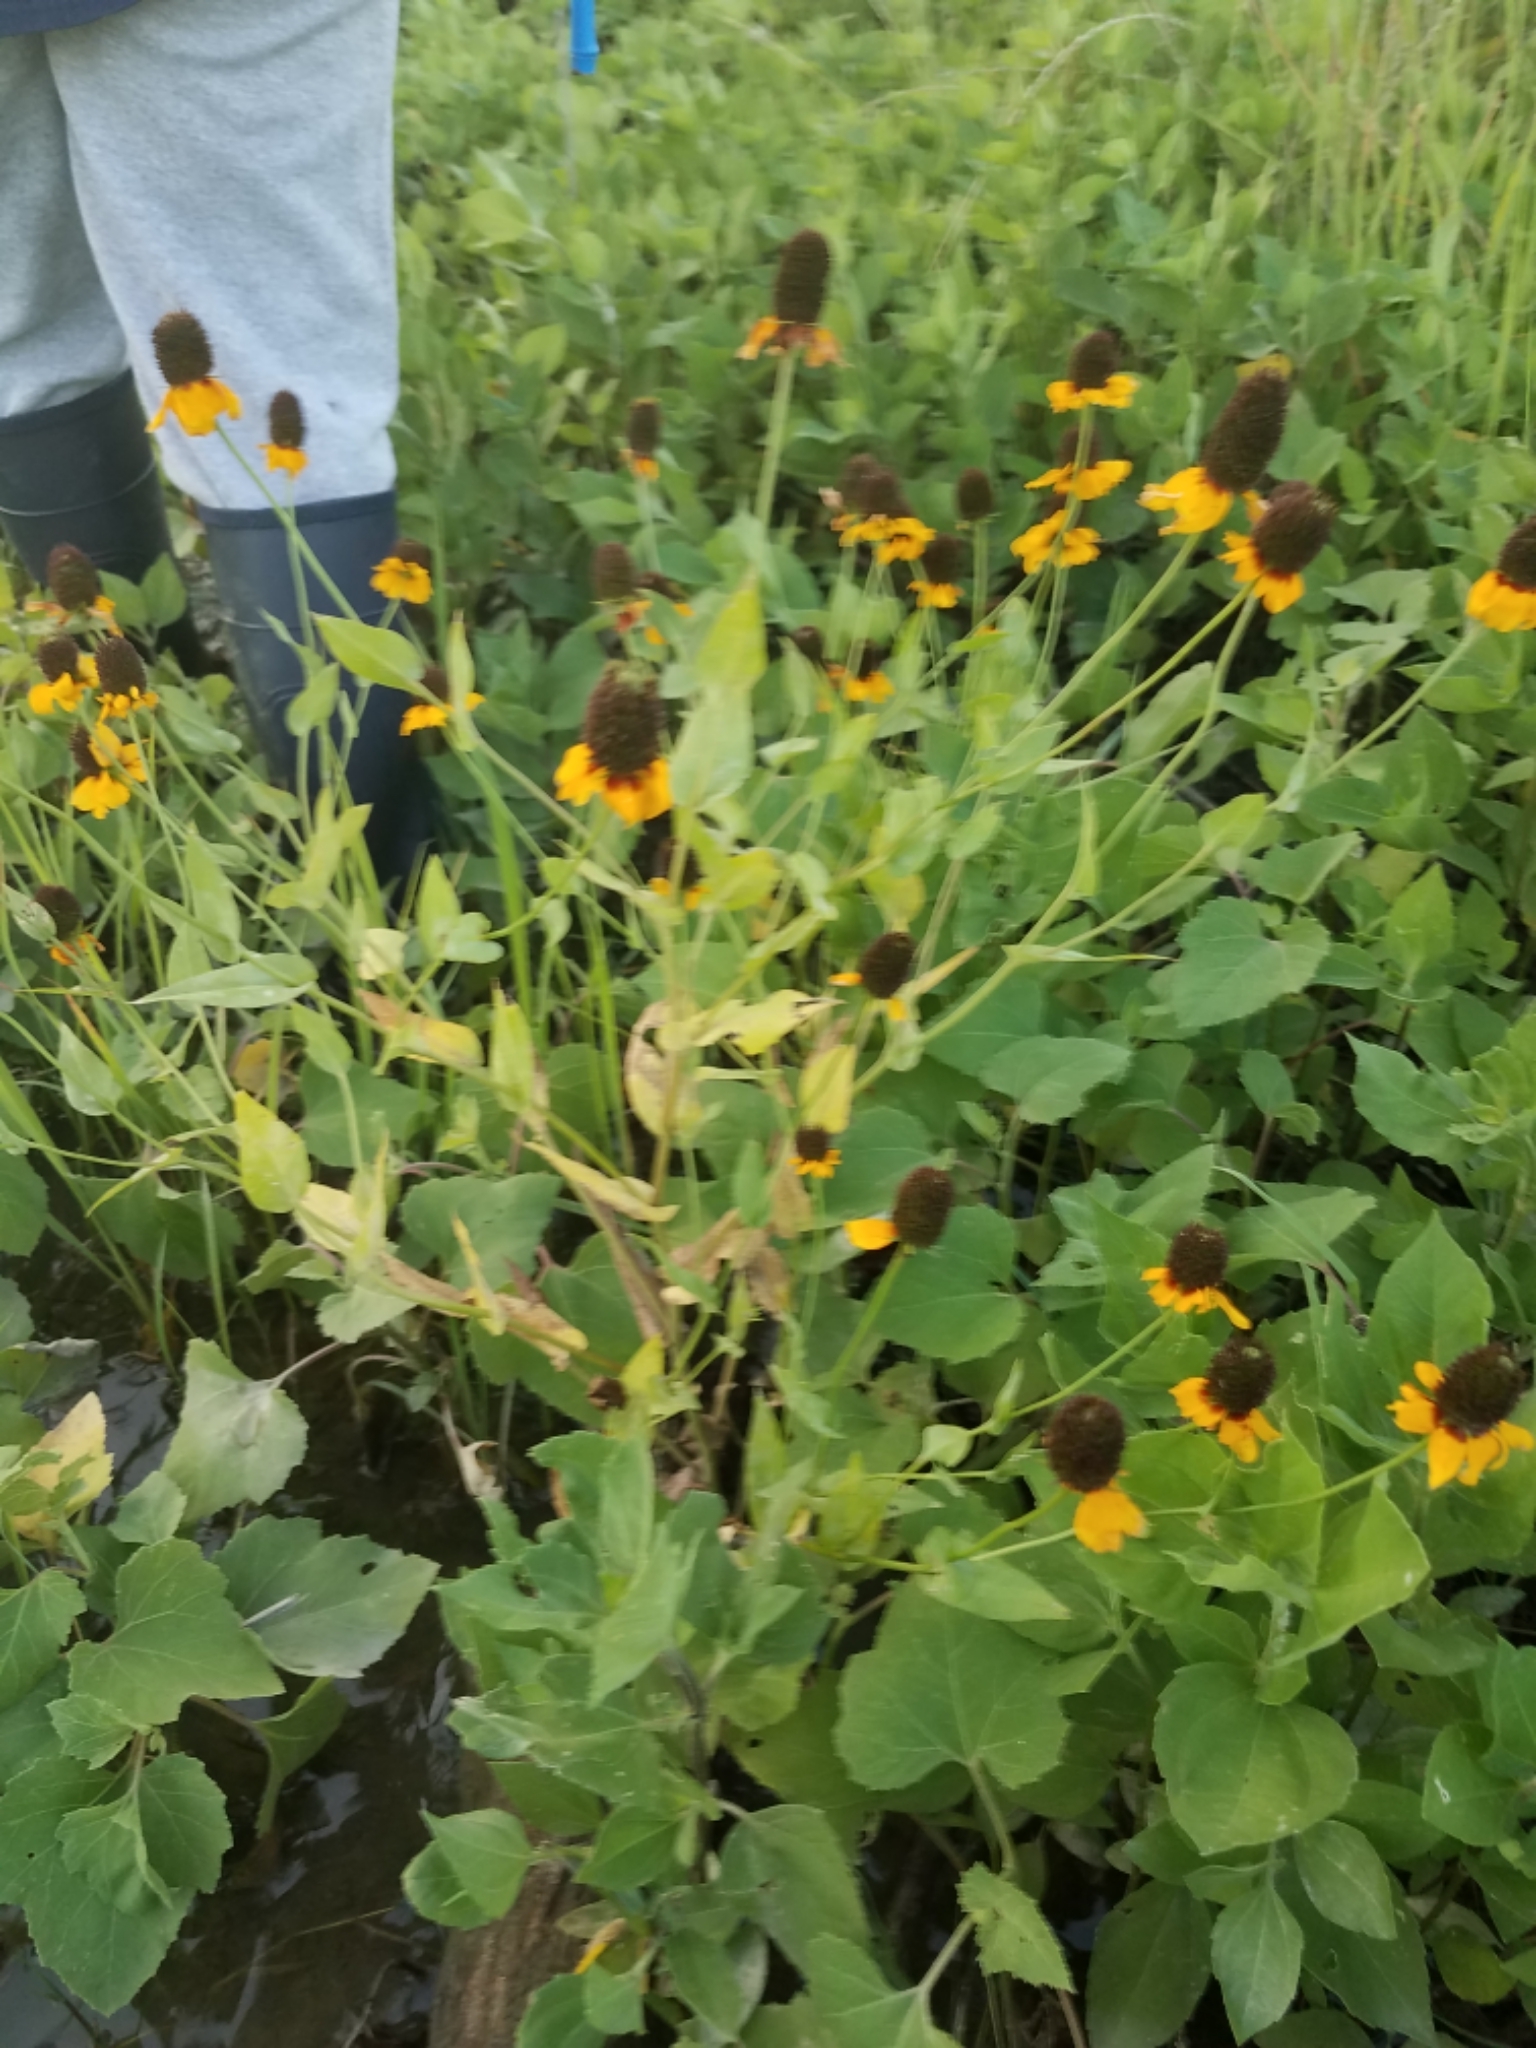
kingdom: Plantae
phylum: Tracheophyta
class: Magnoliopsida
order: Asterales
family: Asteraceae
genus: Rudbeckia
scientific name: Rudbeckia amplexicaulis
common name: Clasping-leaf coneflower
